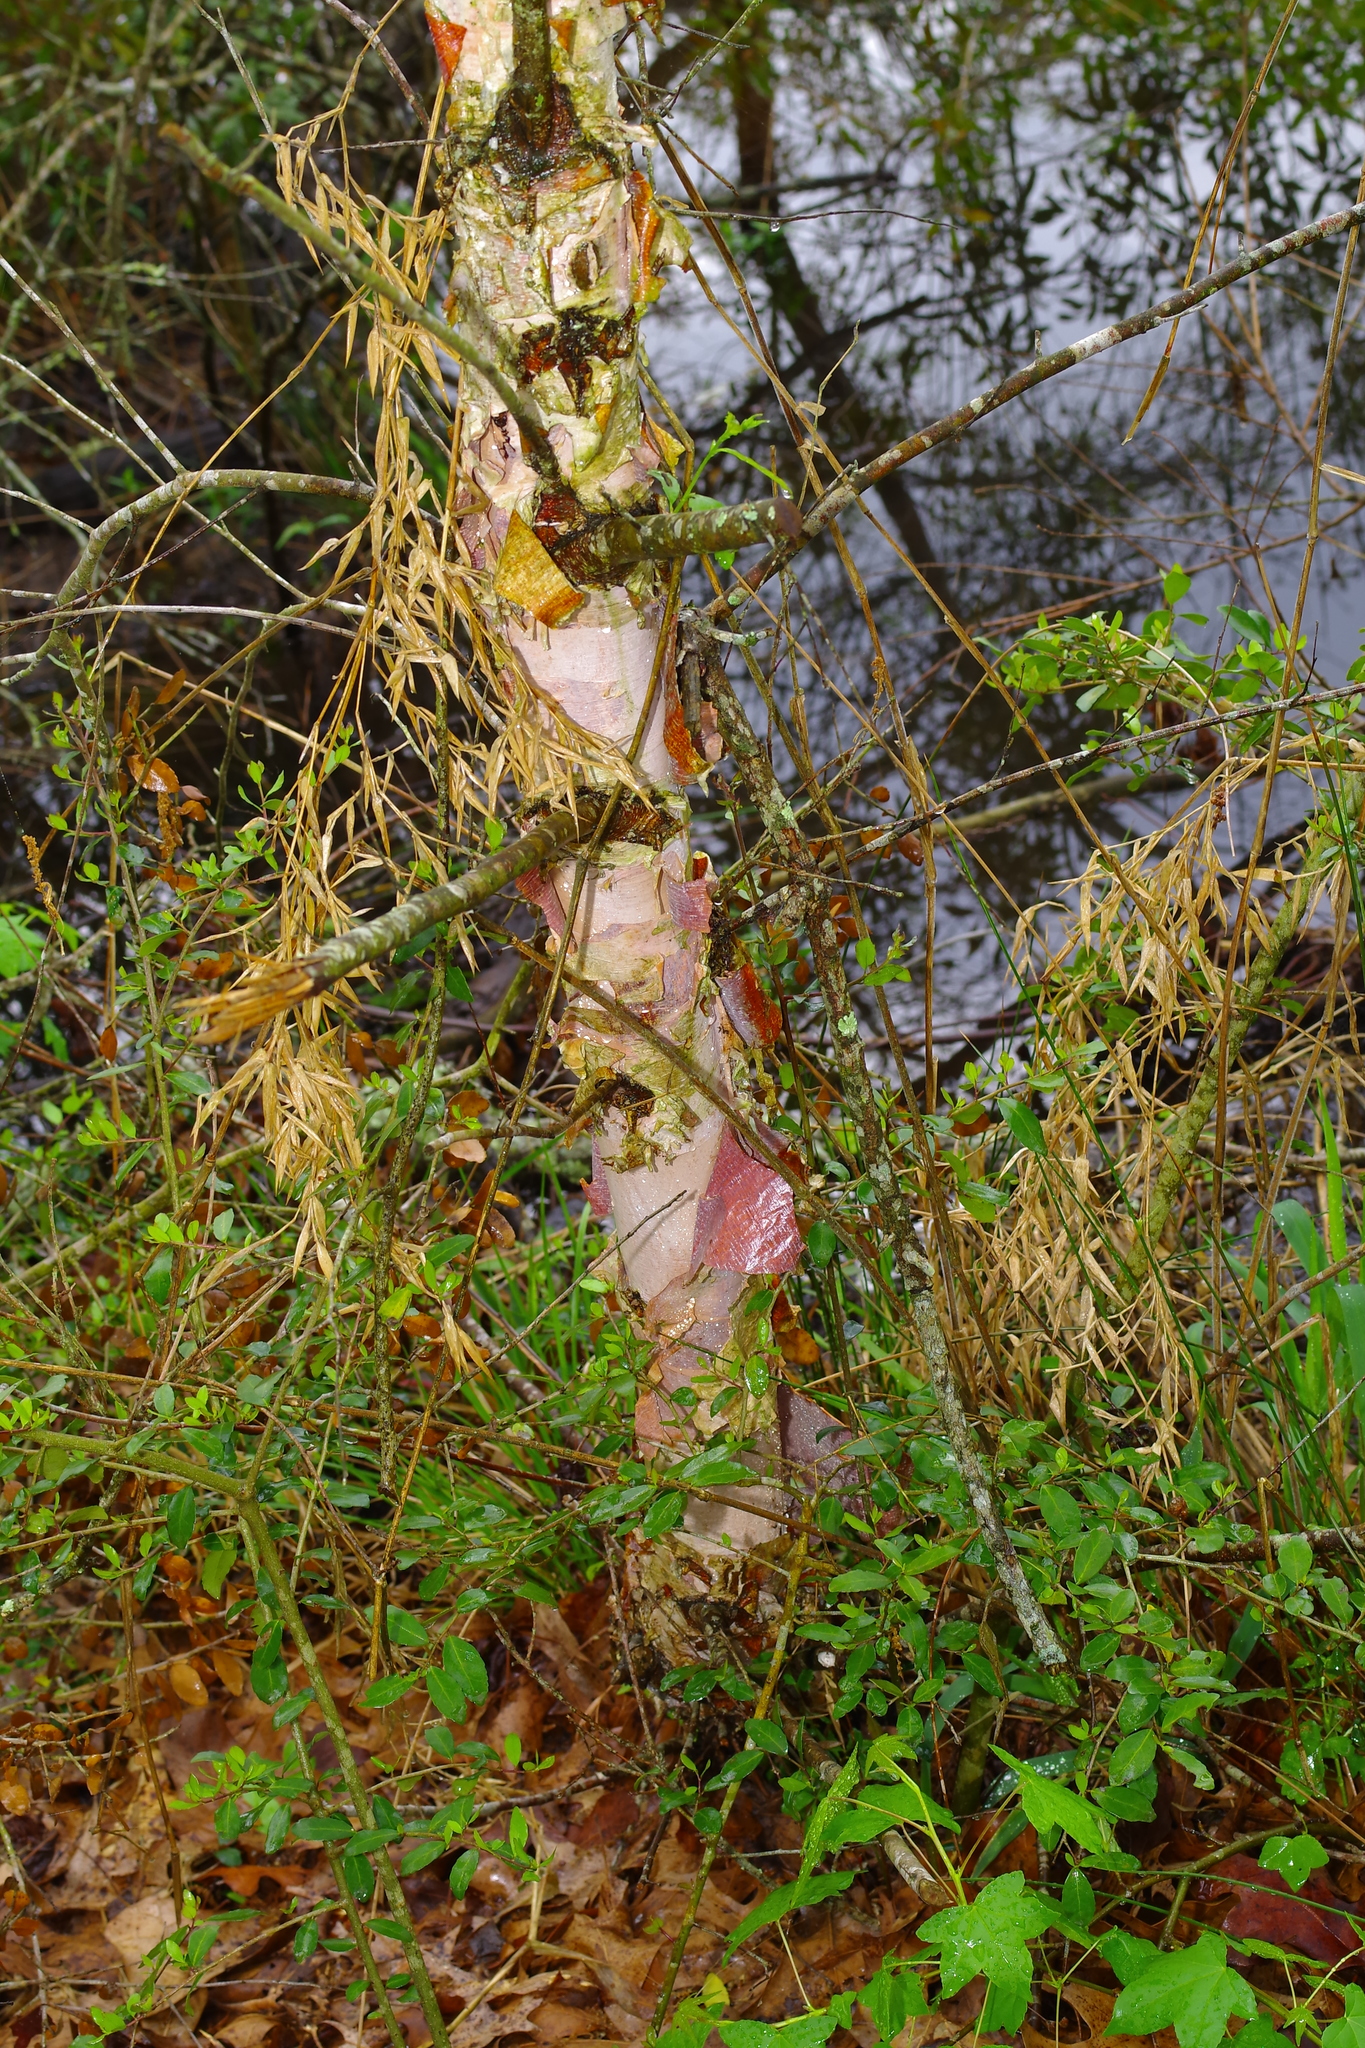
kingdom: Plantae
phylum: Tracheophyta
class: Magnoliopsida
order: Fagales
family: Betulaceae
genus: Betula
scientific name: Betula nigra
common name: Black birch
